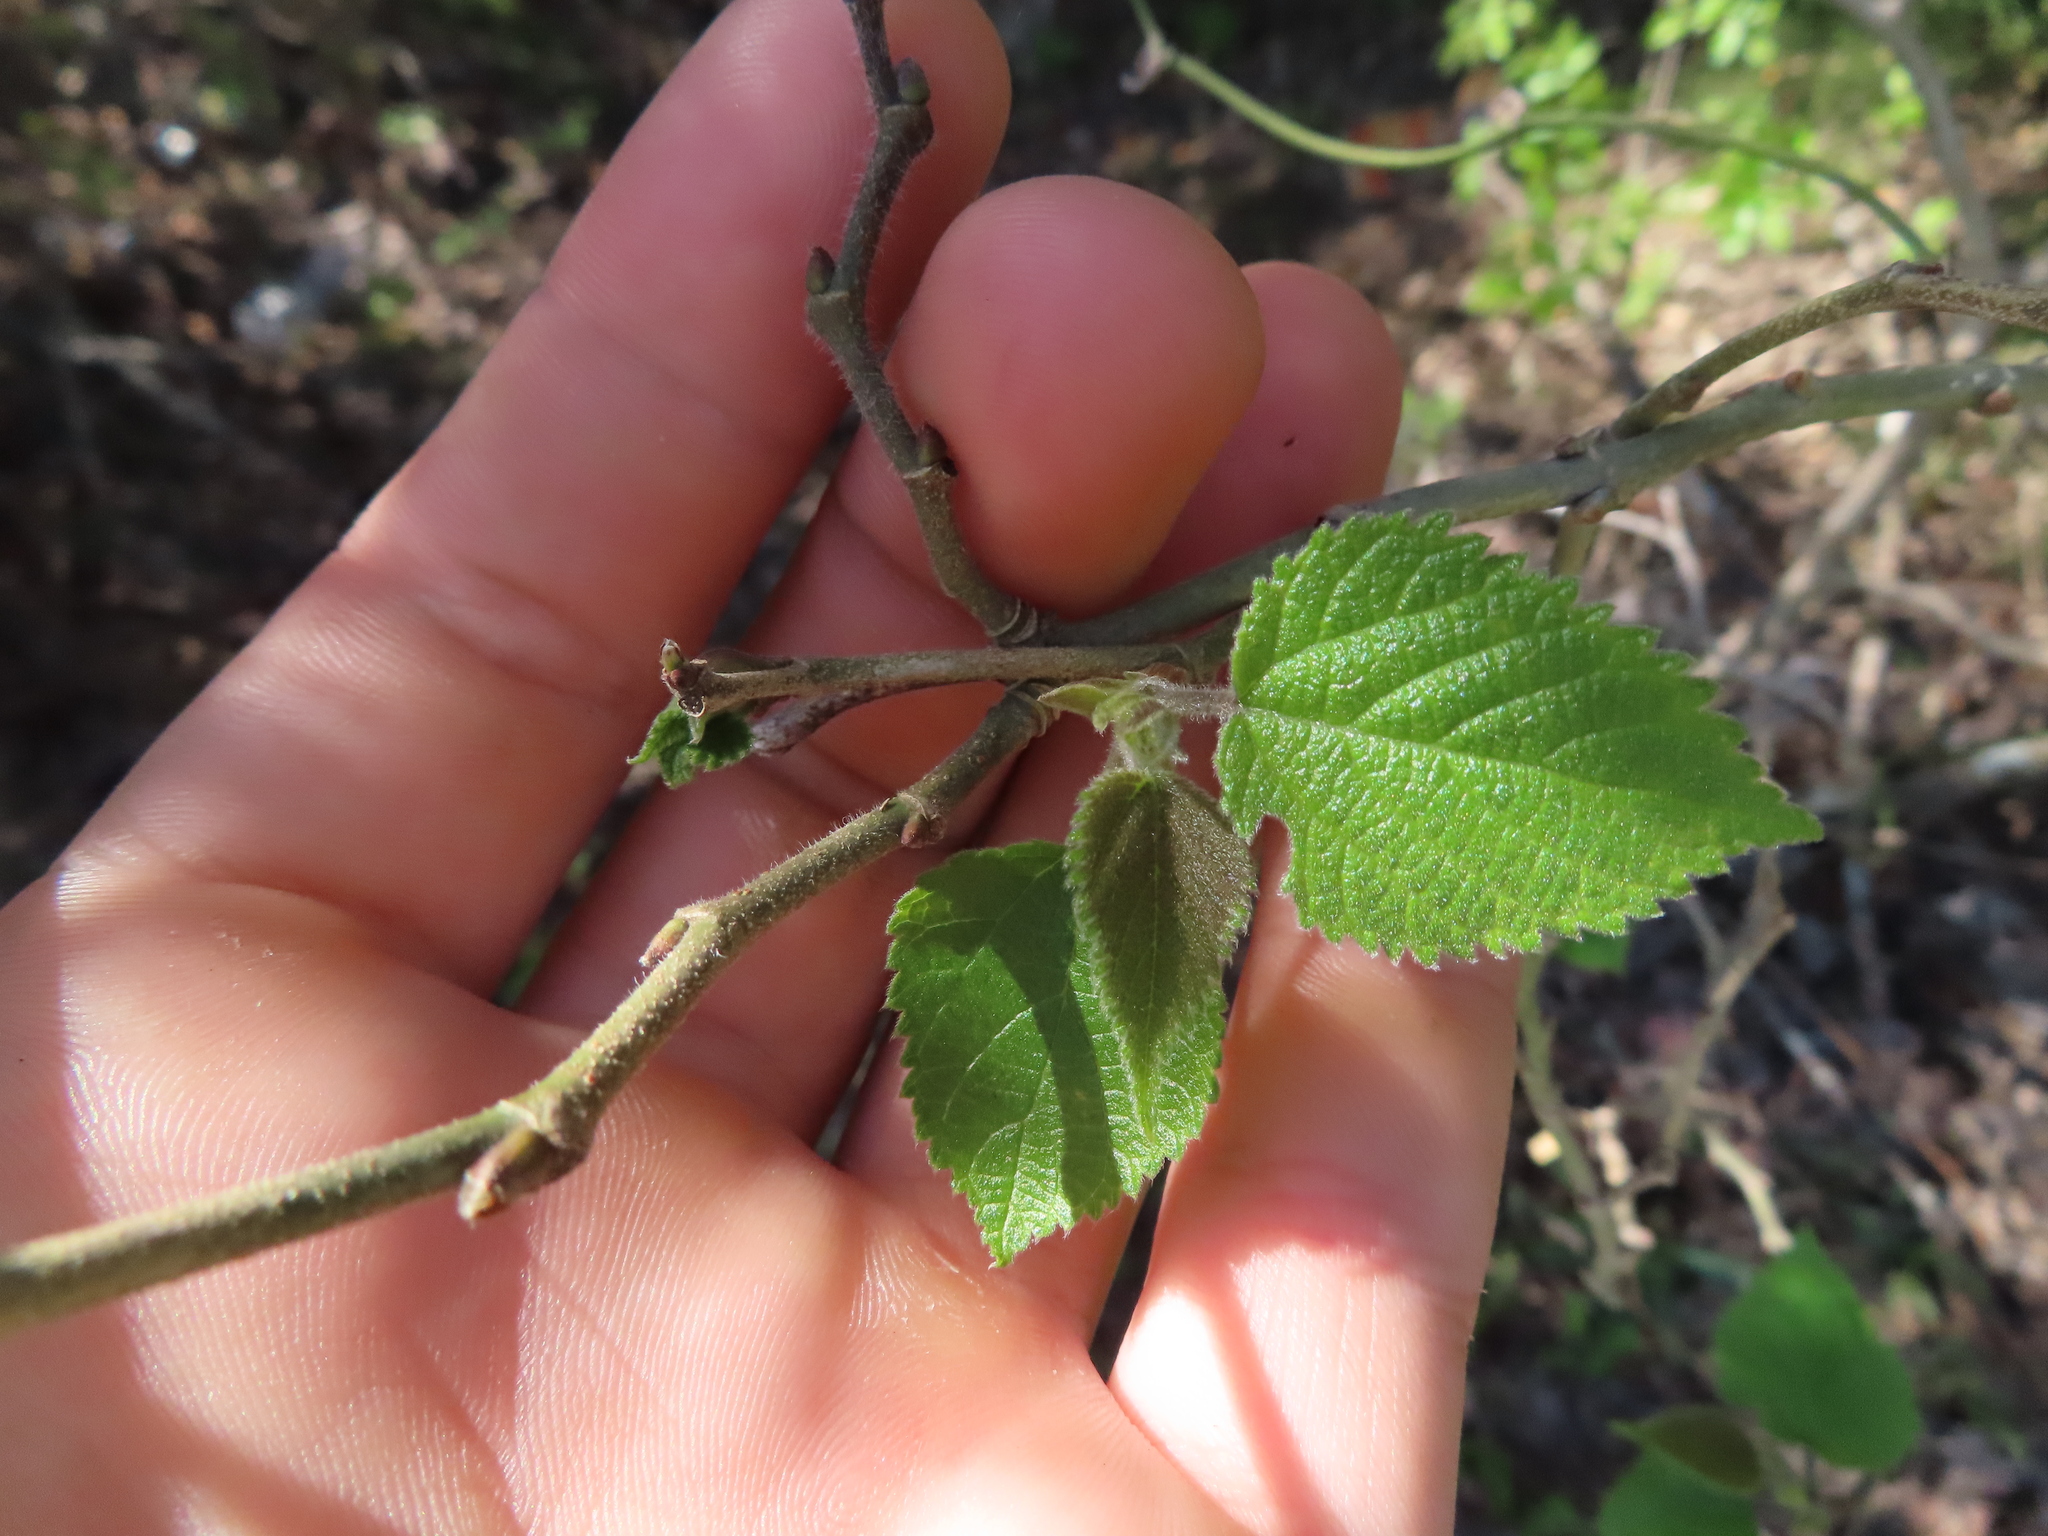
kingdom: Plantae
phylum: Tracheophyta
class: Magnoliopsida
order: Rosales
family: Moraceae
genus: Broussonetia
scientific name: Broussonetia papyrifera
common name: Paper mulberry
